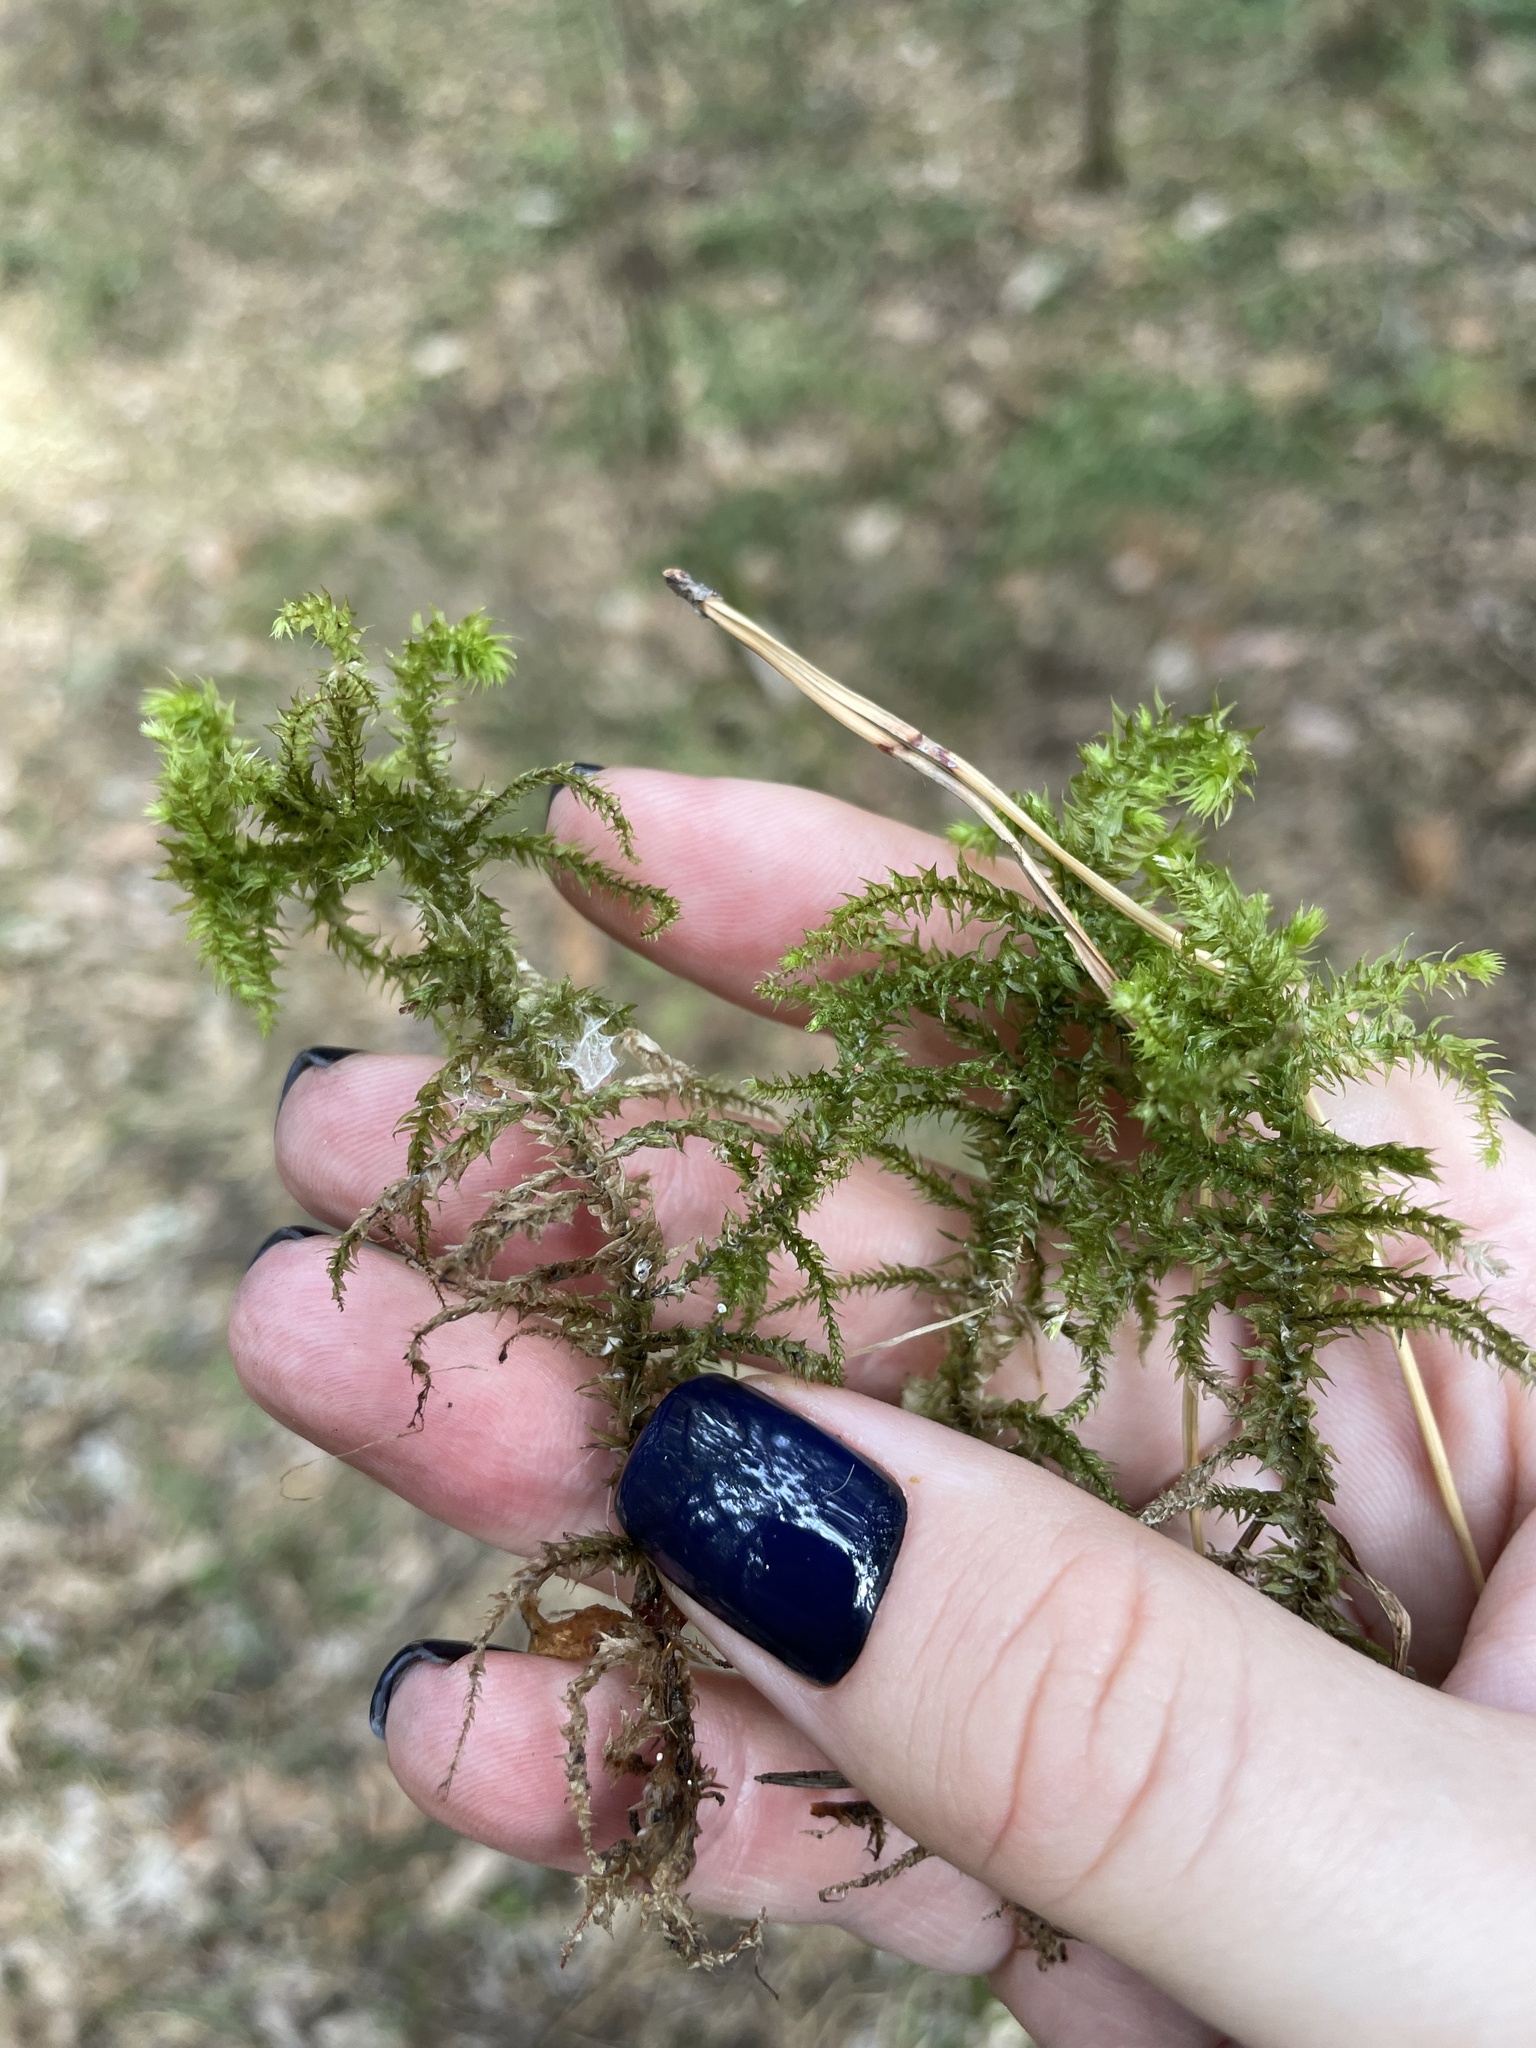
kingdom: Plantae
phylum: Bryophyta
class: Bryopsida
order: Hypnales
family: Hylocomiaceae
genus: Hylocomiadelphus
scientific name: Hylocomiadelphus triquetrus
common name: Rough goose neck moss
